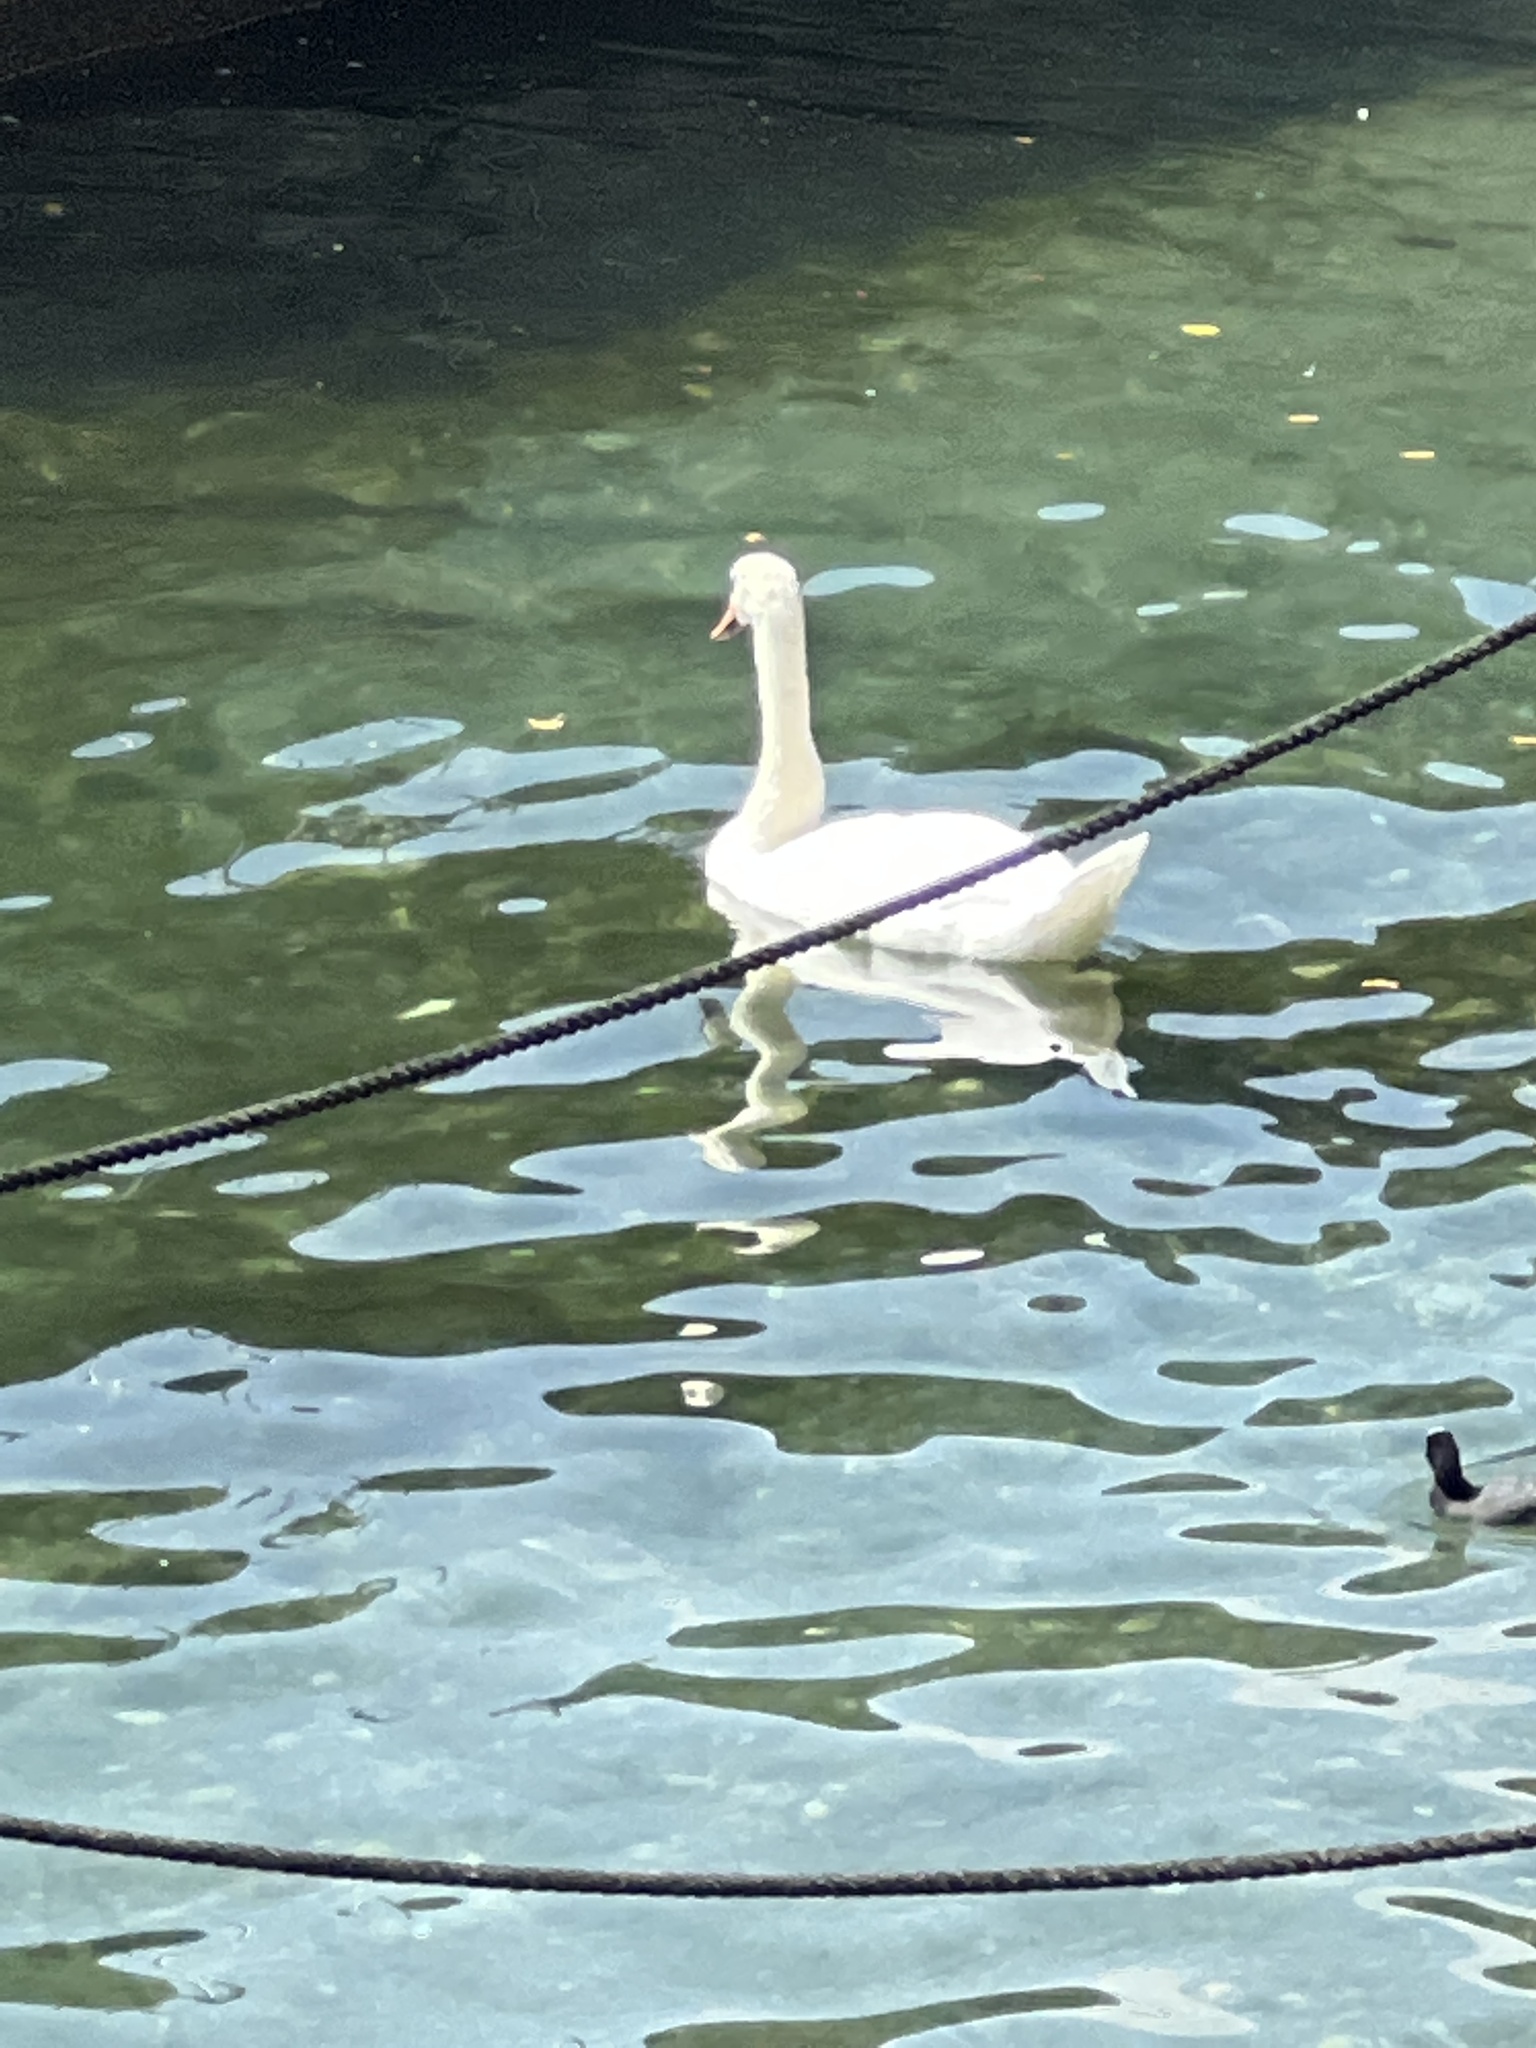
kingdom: Animalia
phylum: Chordata
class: Aves
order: Anseriformes
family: Anatidae
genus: Cygnus
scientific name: Cygnus olor
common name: Mute swan
